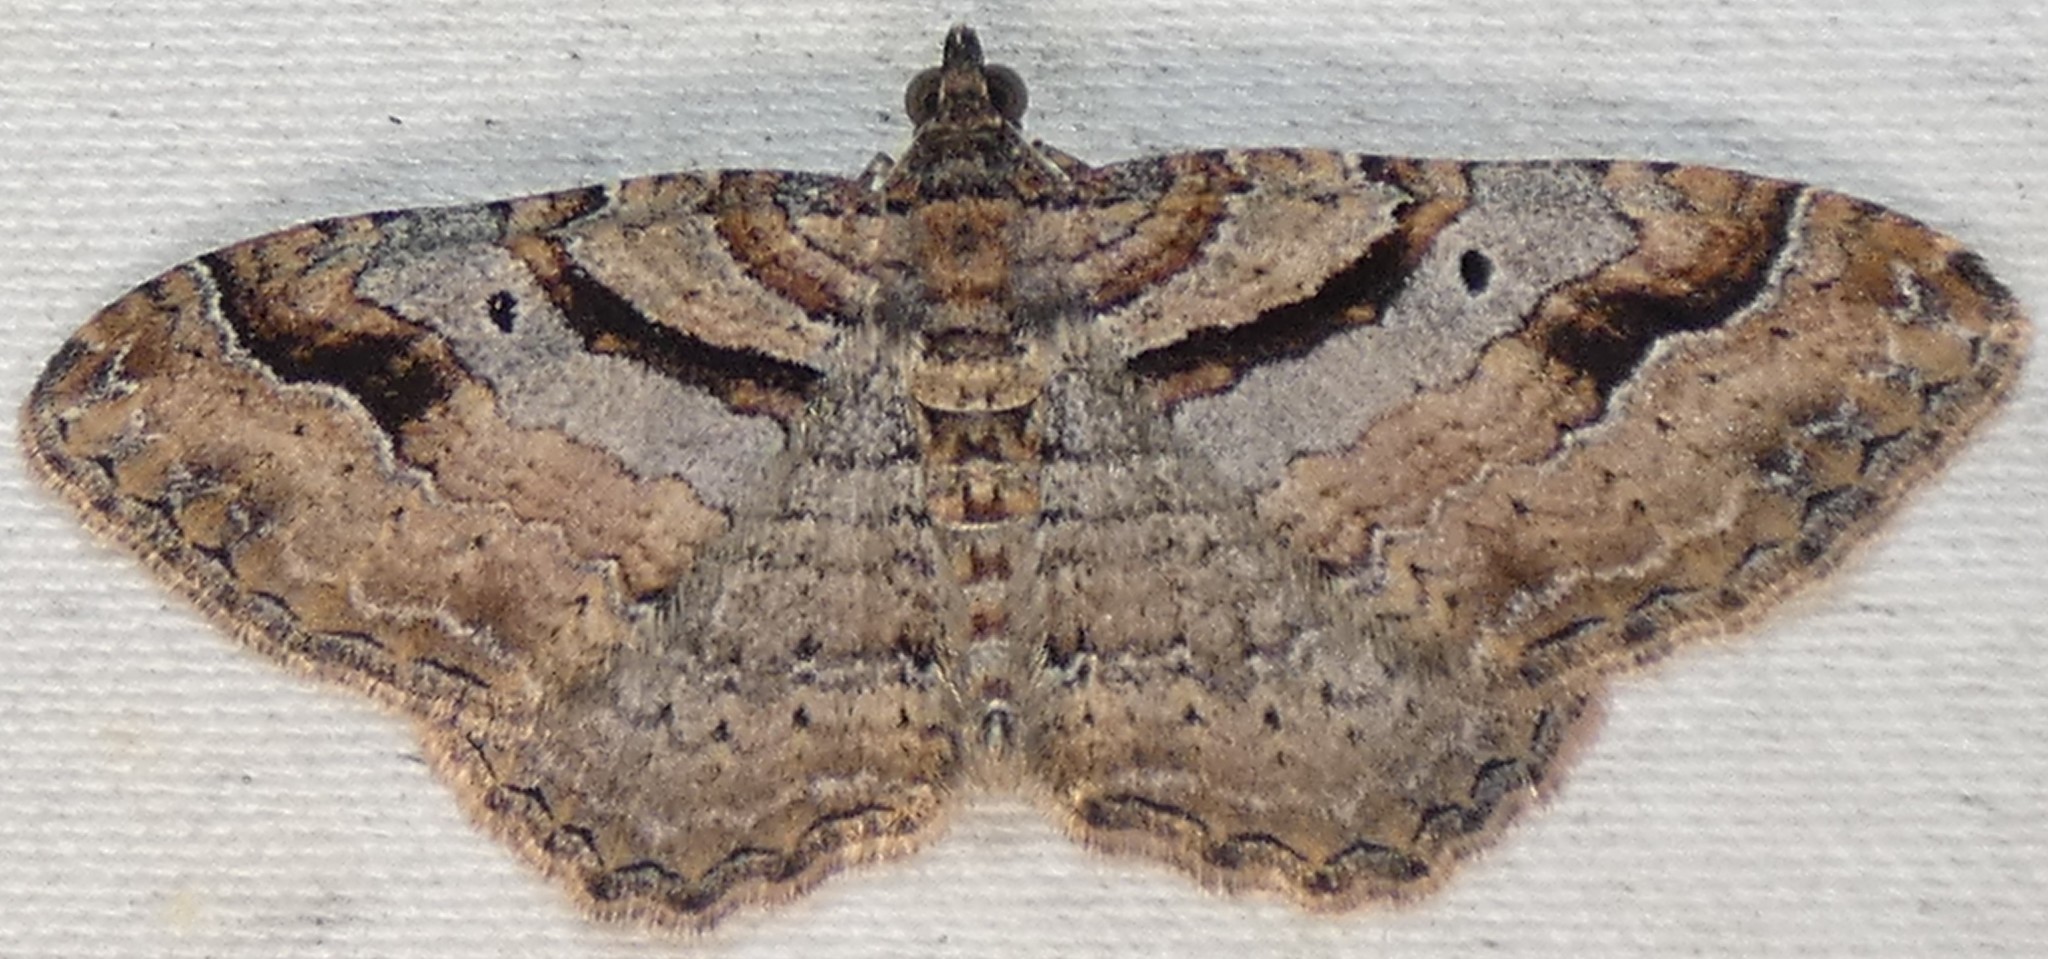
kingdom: Animalia
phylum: Arthropoda
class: Insecta
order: Lepidoptera
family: Geometridae
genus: Costaconvexa
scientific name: Costaconvexa centrostrigaria
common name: Bent-line carpet
